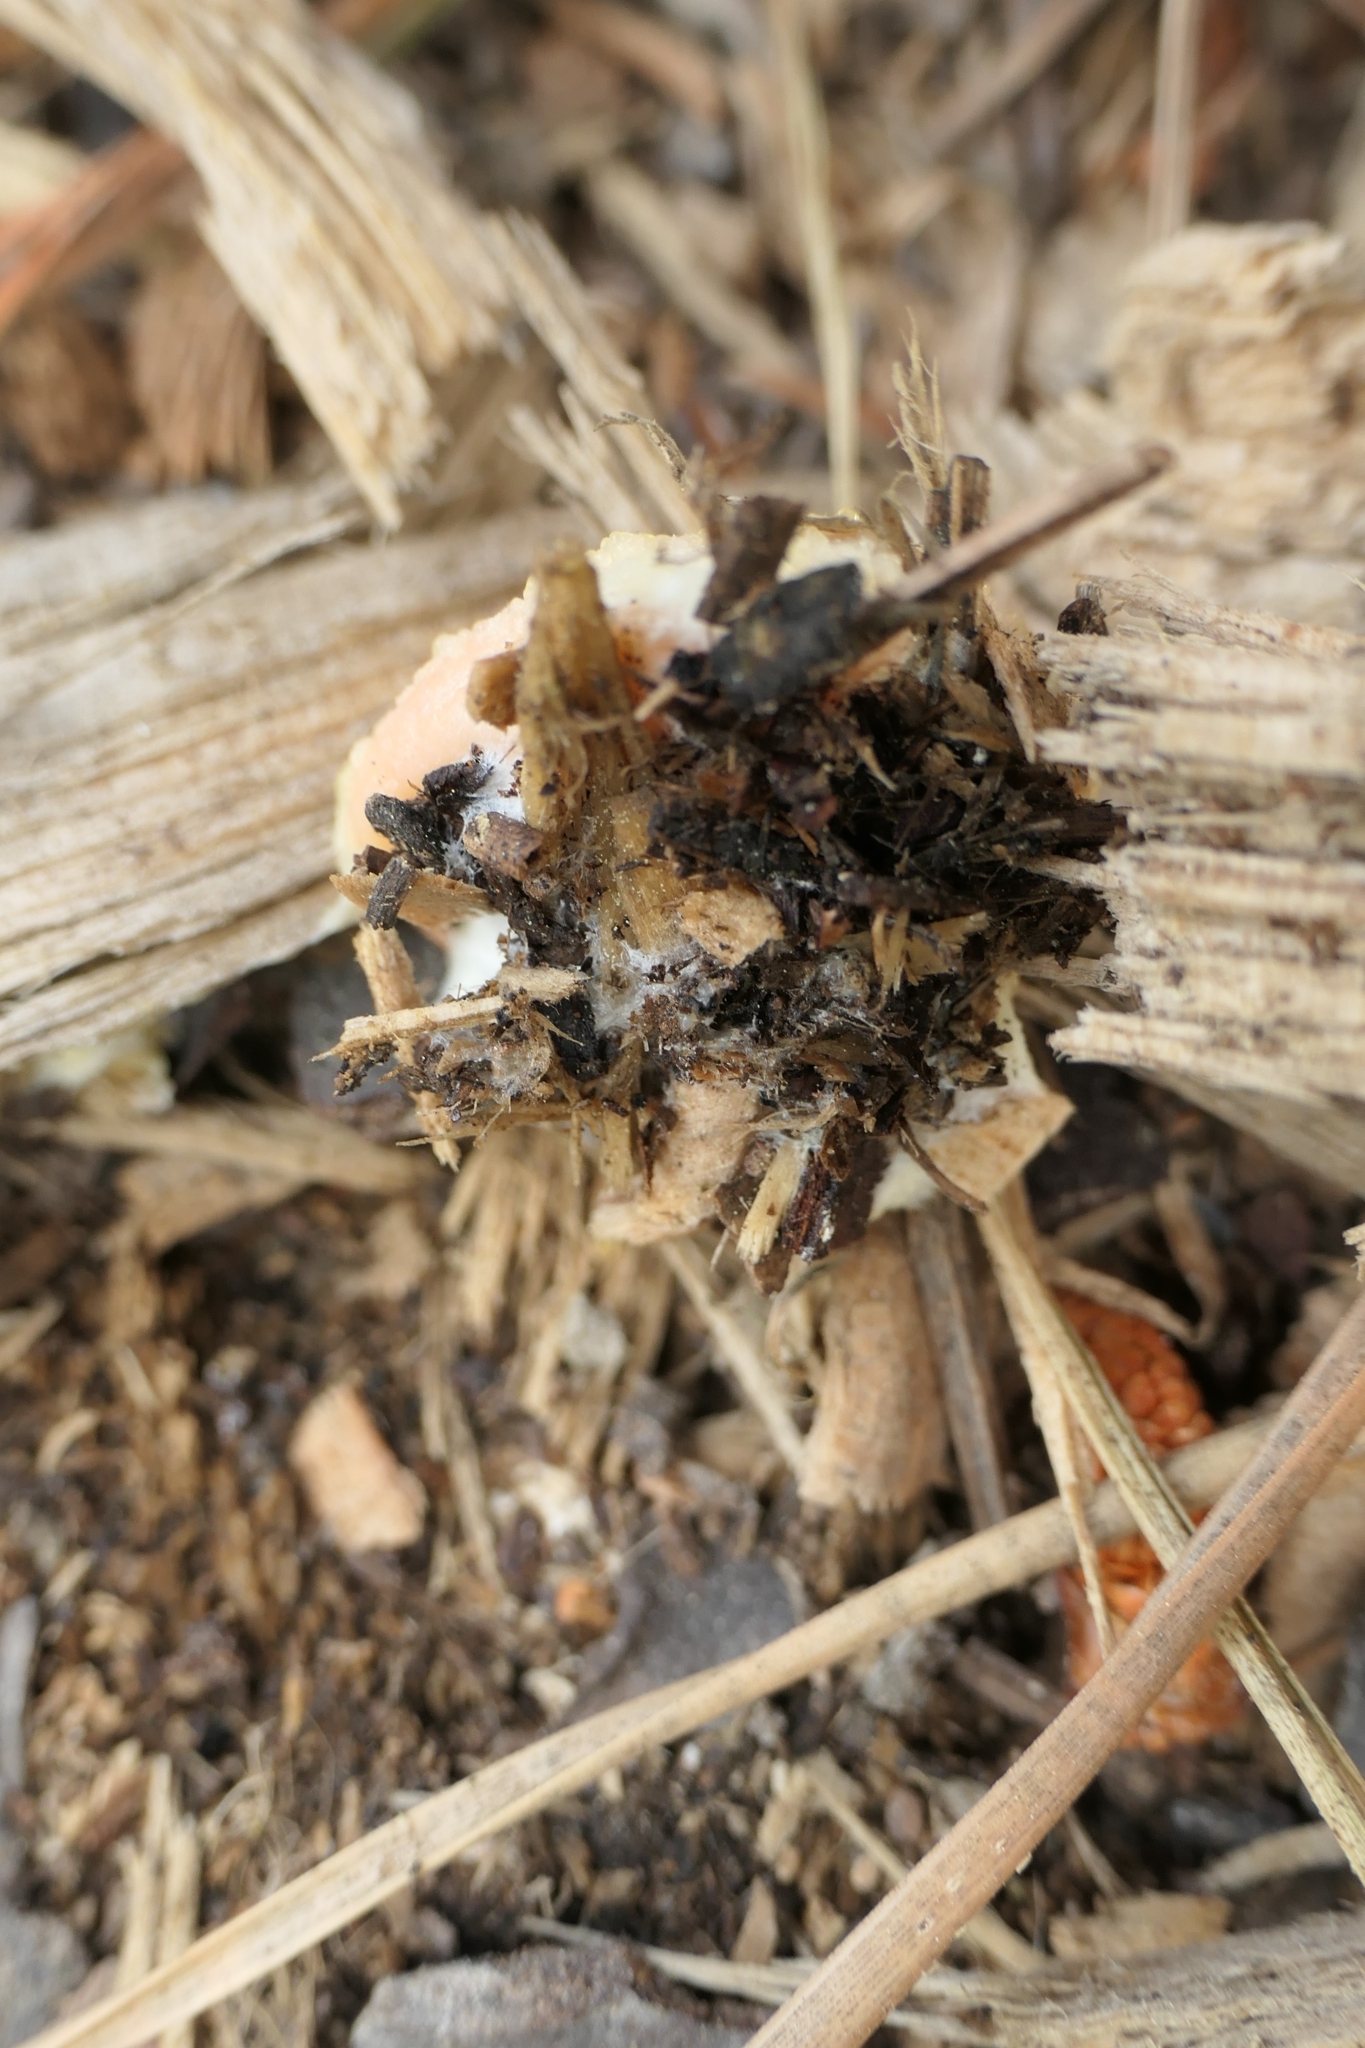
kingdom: Protozoa
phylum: Mycetozoa
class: Myxomycetes
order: Physarales
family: Physaraceae
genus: Fuligo
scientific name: Fuligo septica
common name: Dog vomit slime mold
